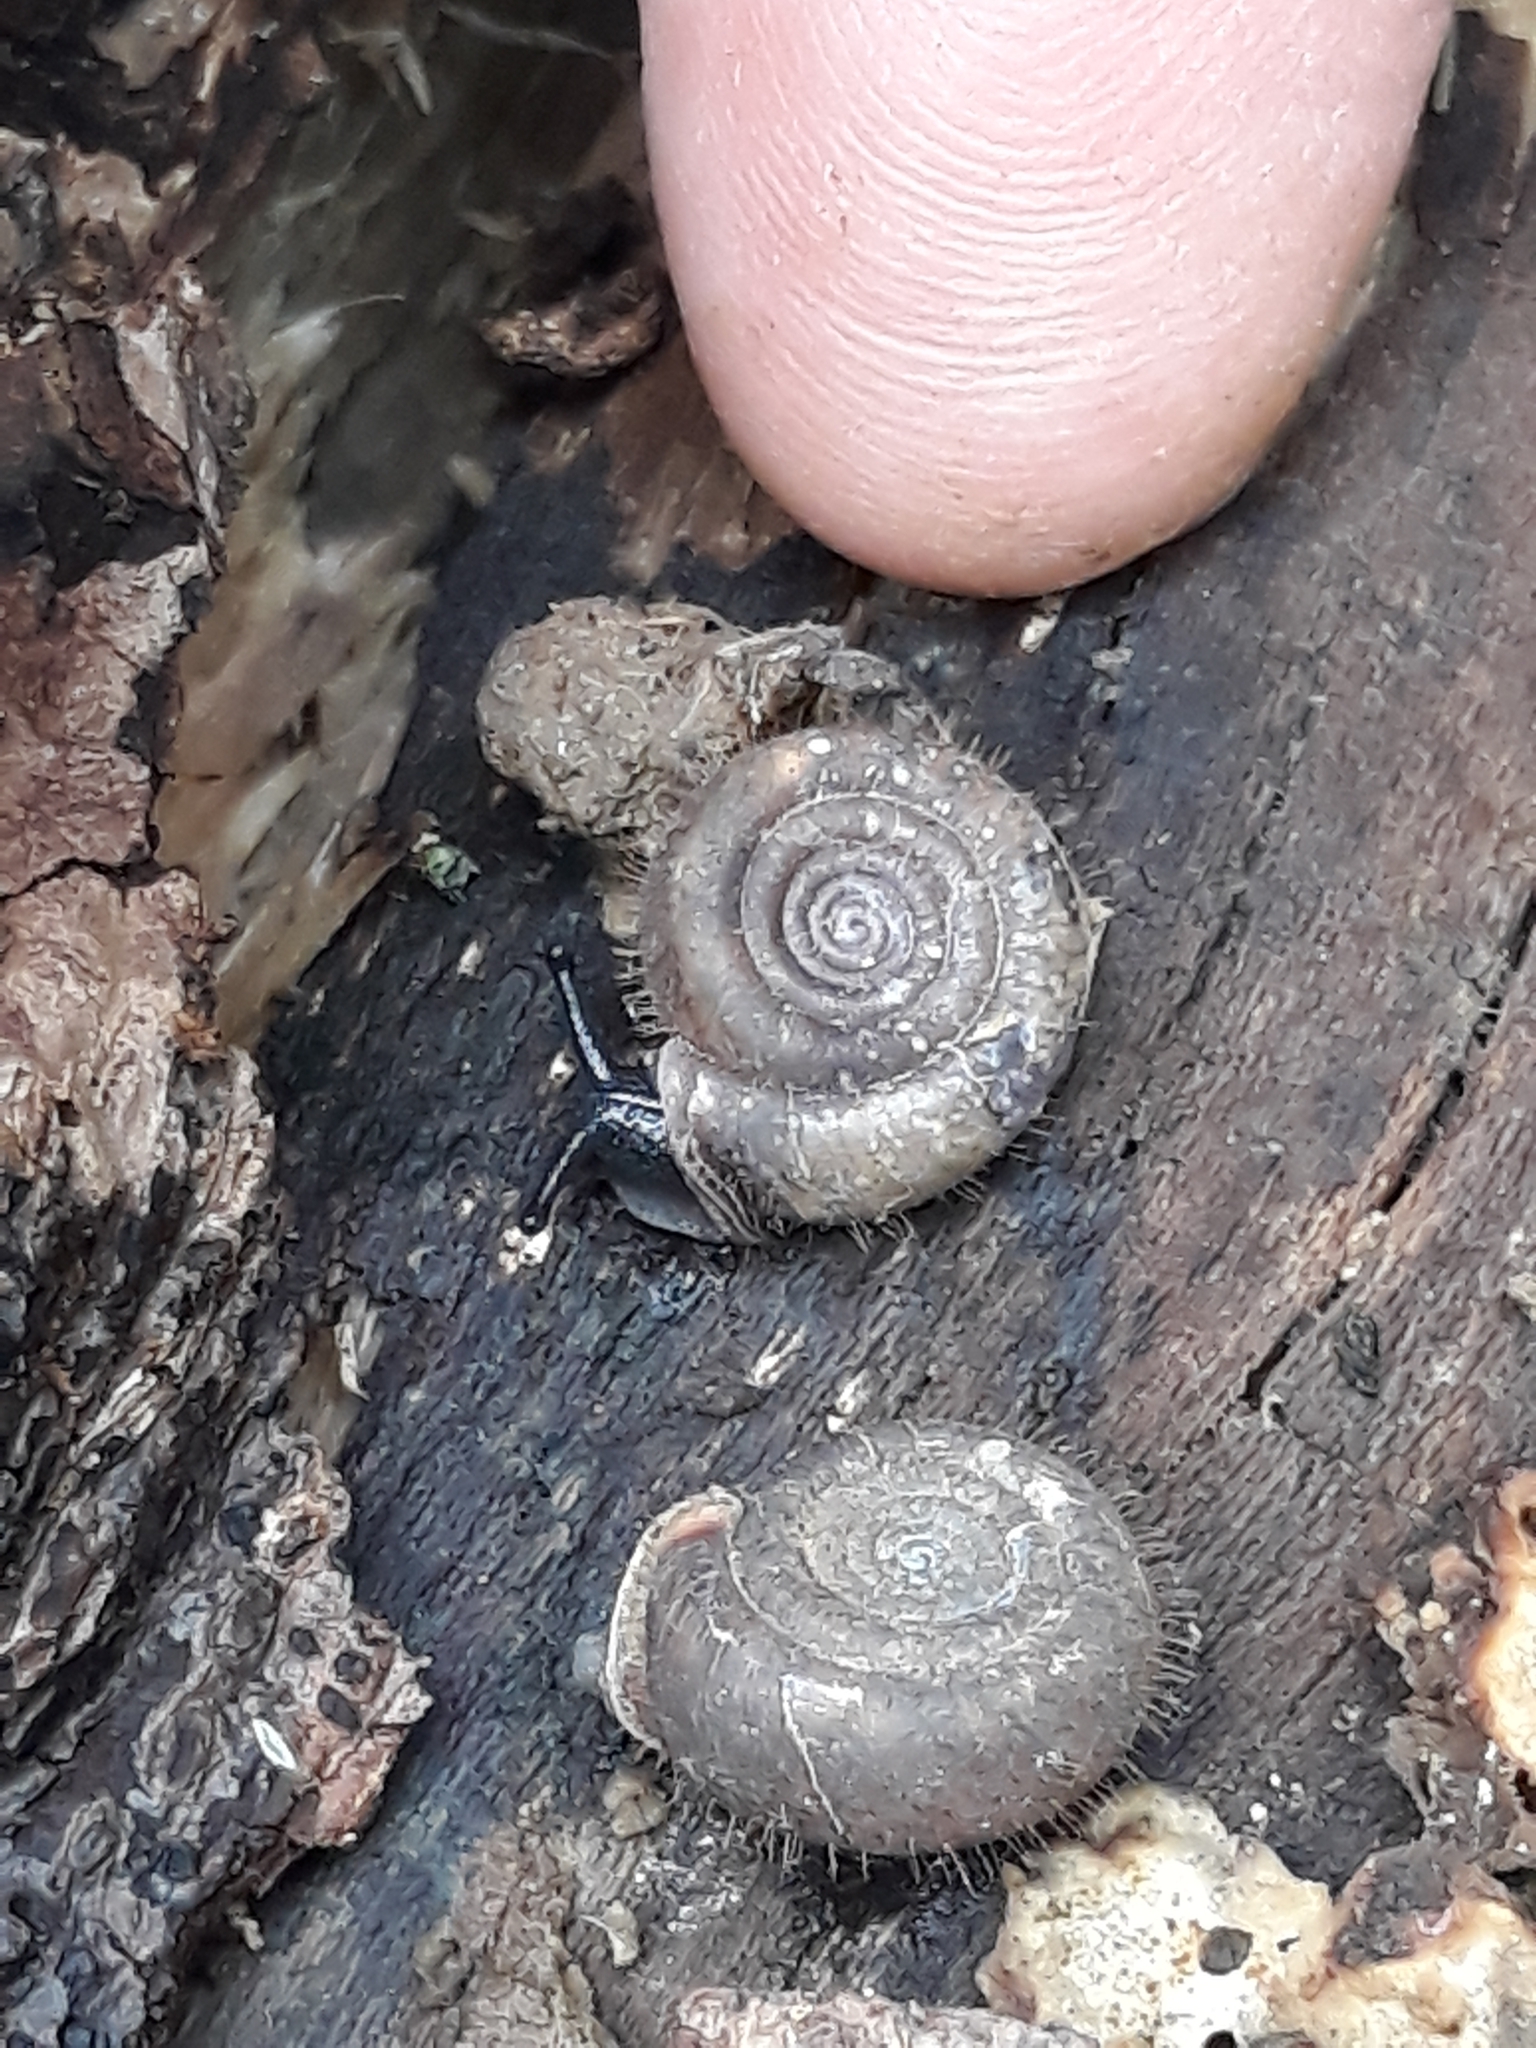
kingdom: Animalia
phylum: Mollusca
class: Gastropoda
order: Stylommatophora
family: Helicodontidae
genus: Helicodonta
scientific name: Helicodonta obvoluta
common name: Cheese snail
